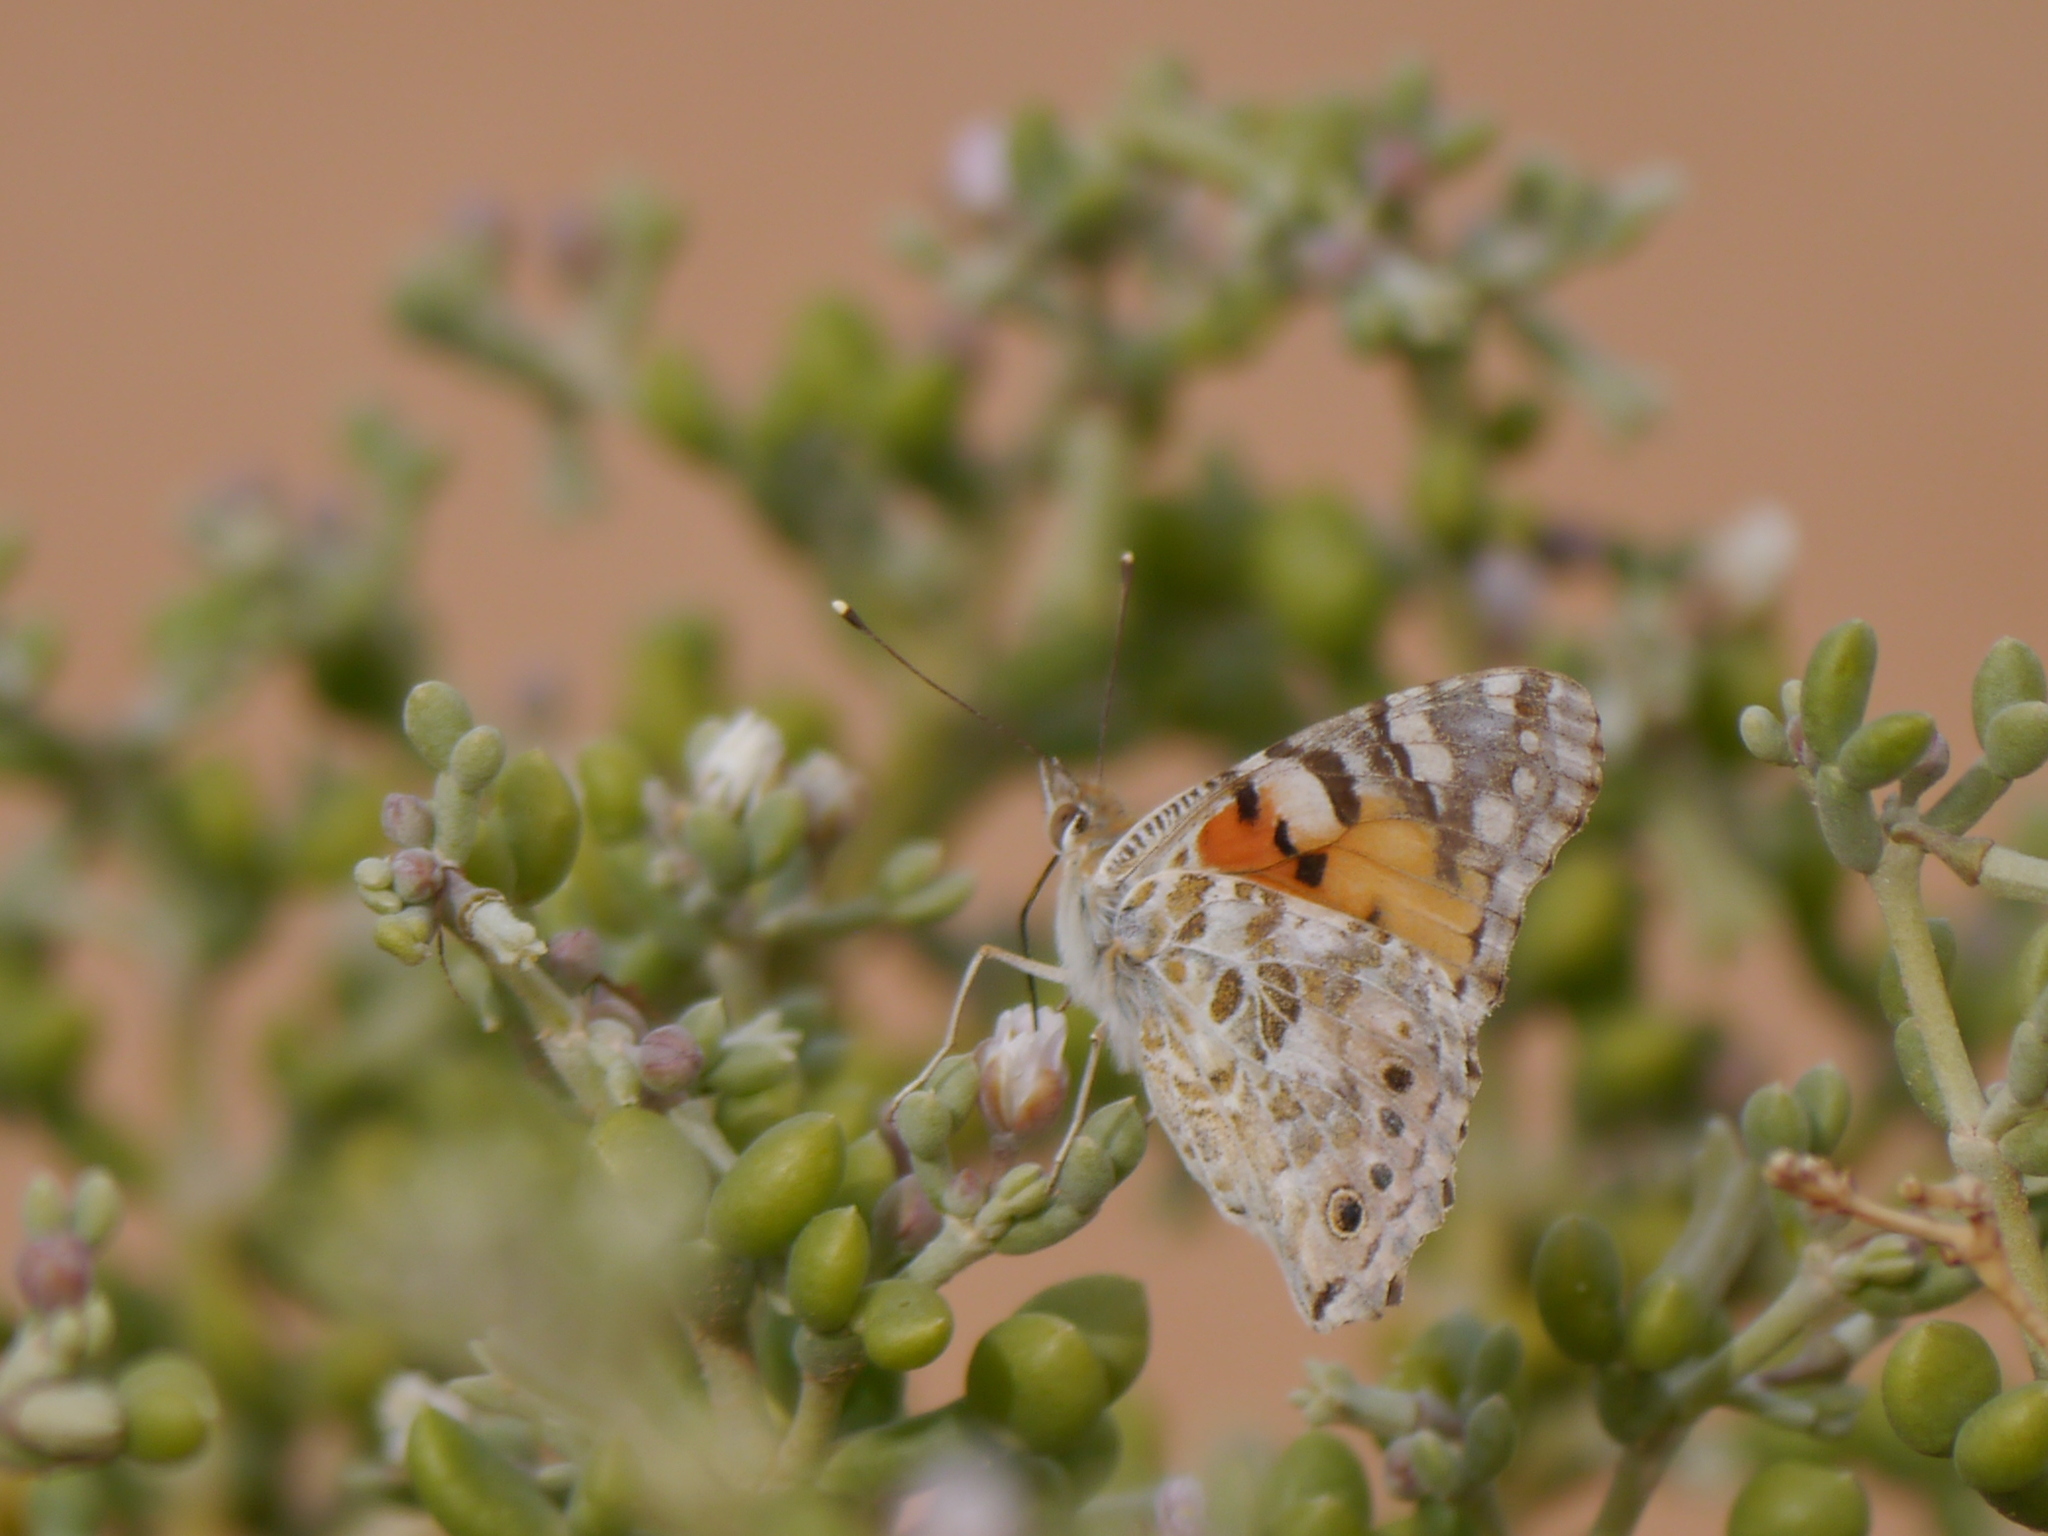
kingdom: Animalia
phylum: Arthropoda
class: Insecta
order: Lepidoptera
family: Nymphalidae
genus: Vanessa
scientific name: Vanessa cardui
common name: Painted lady
